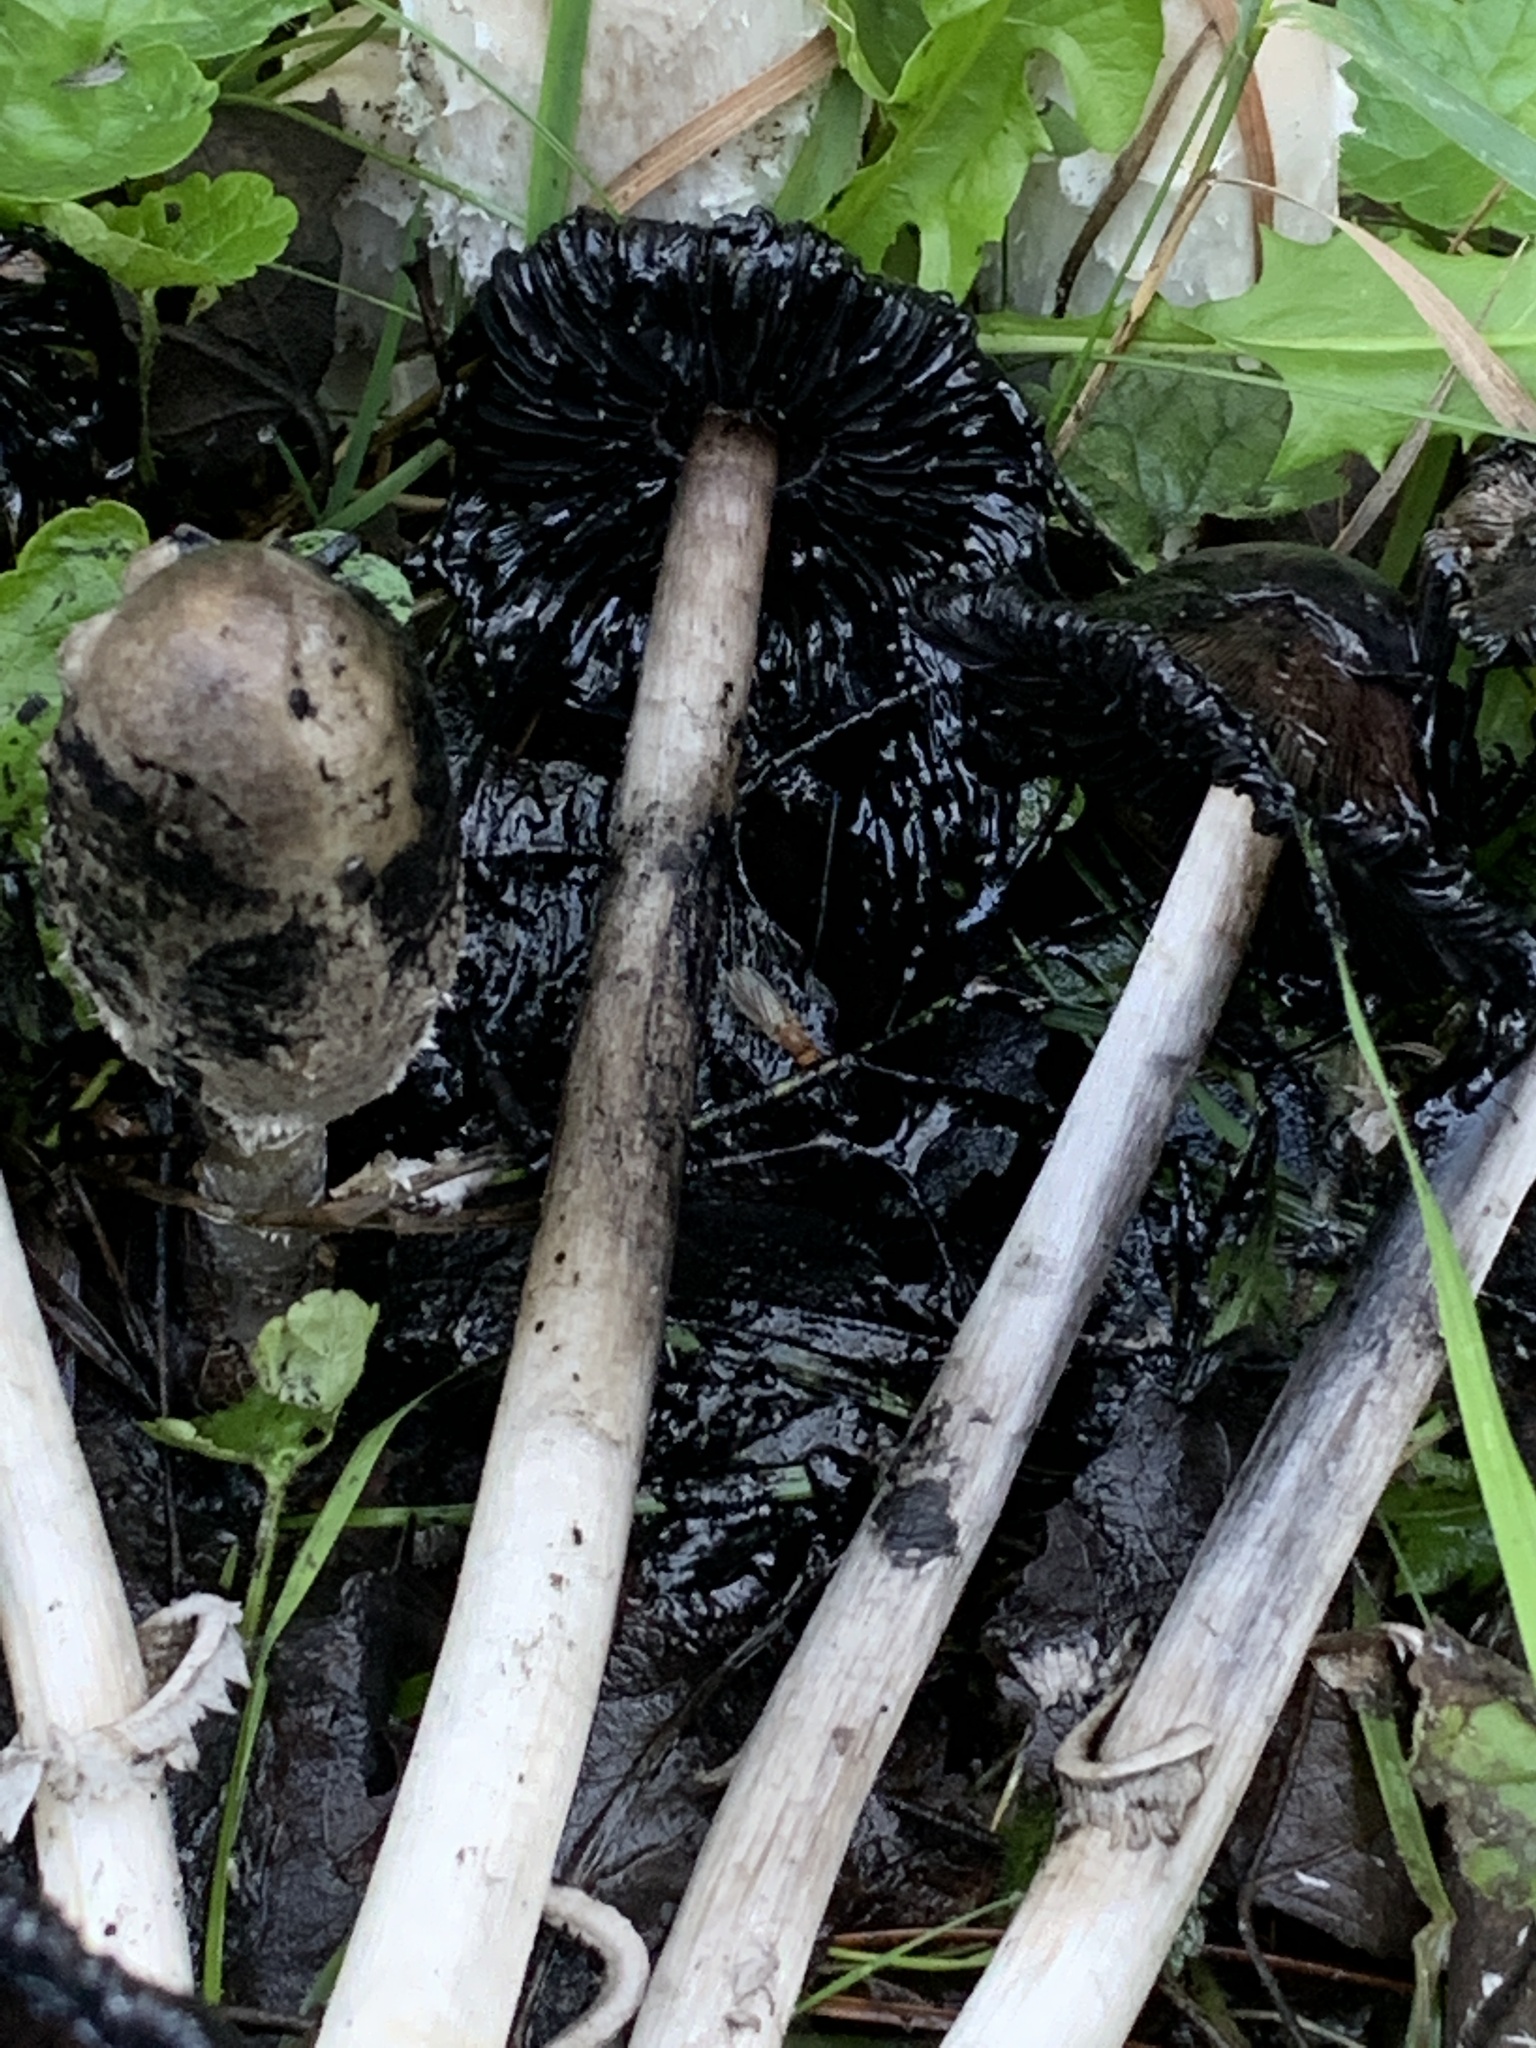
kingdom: Fungi
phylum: Basidiomycota
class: Agaricomycetes
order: Agaricales
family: Agaricaceae
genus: Coprinus
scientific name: Coprinus comatus
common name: Lawyer's wig
